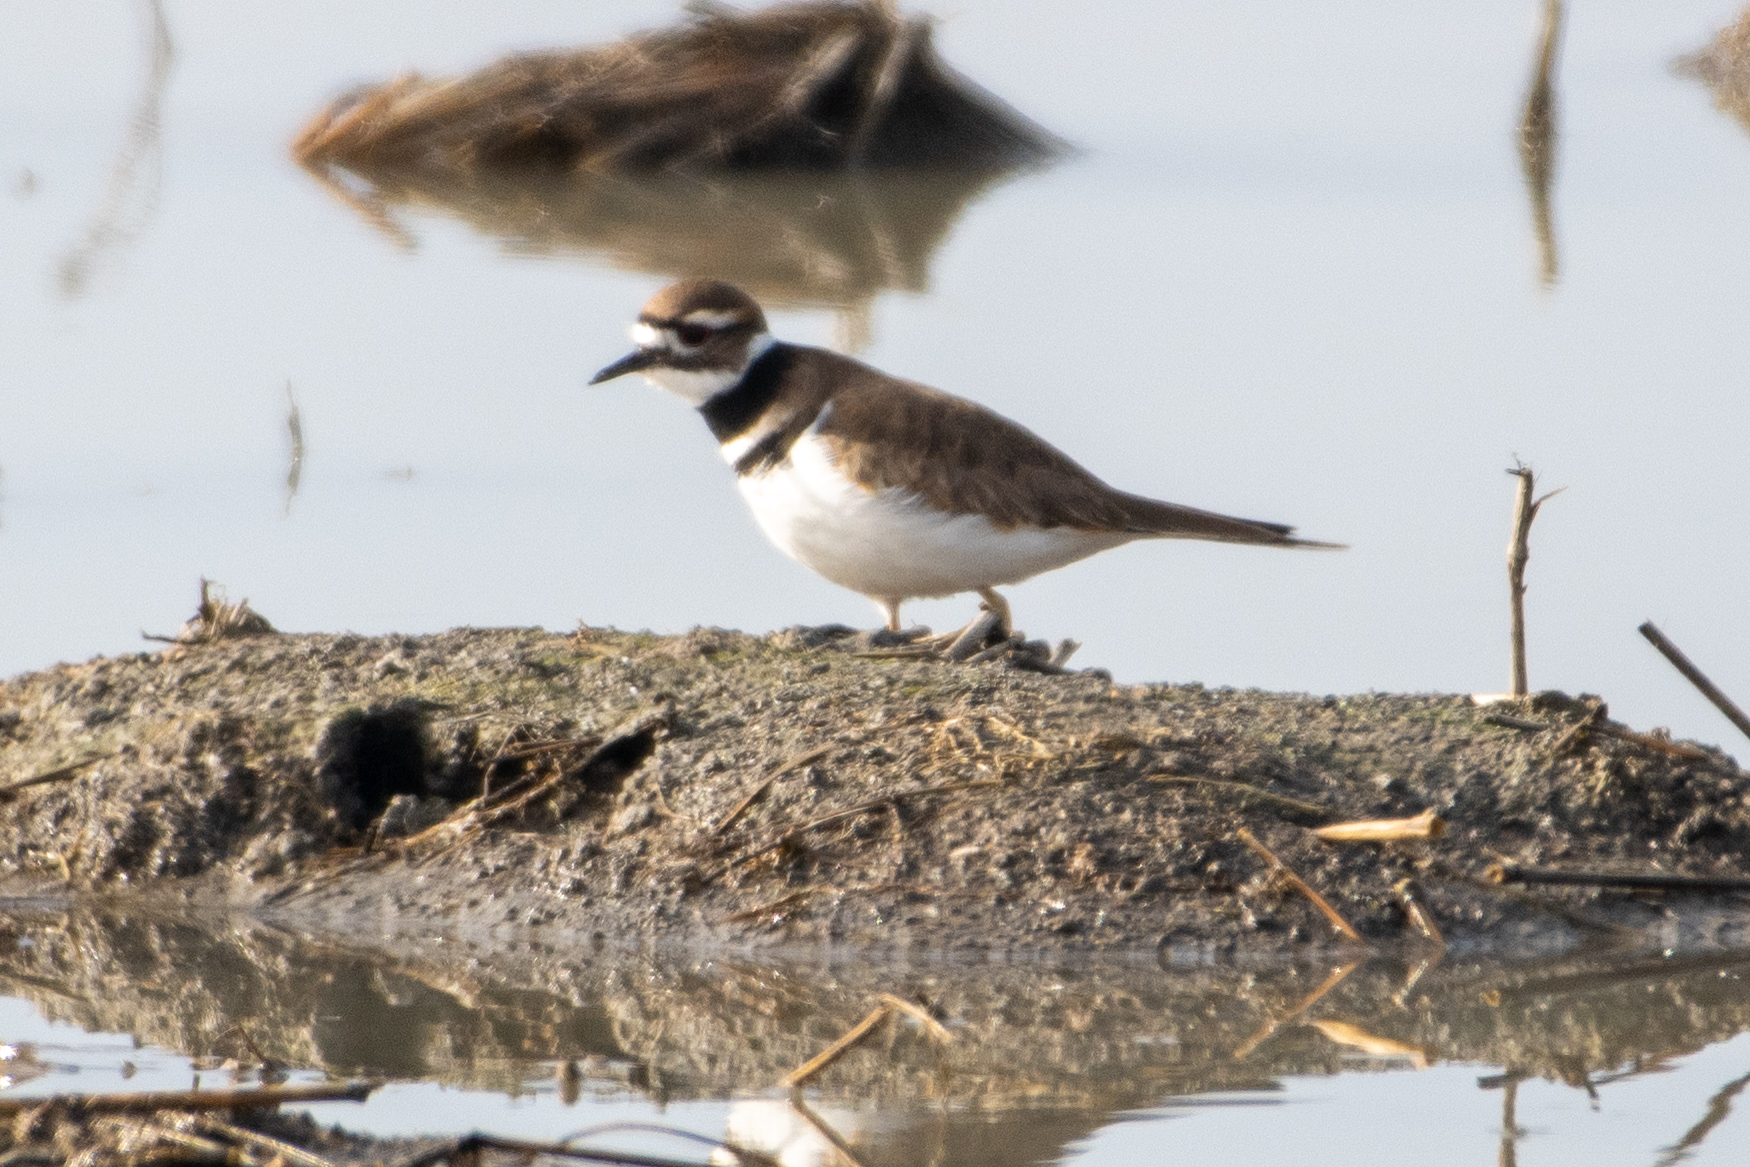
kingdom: Animalia
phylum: Chordata
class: Aves
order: Charadriiformes
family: Charadriidae
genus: Charadrius
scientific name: Charadrius vociferus
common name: Killdeer
